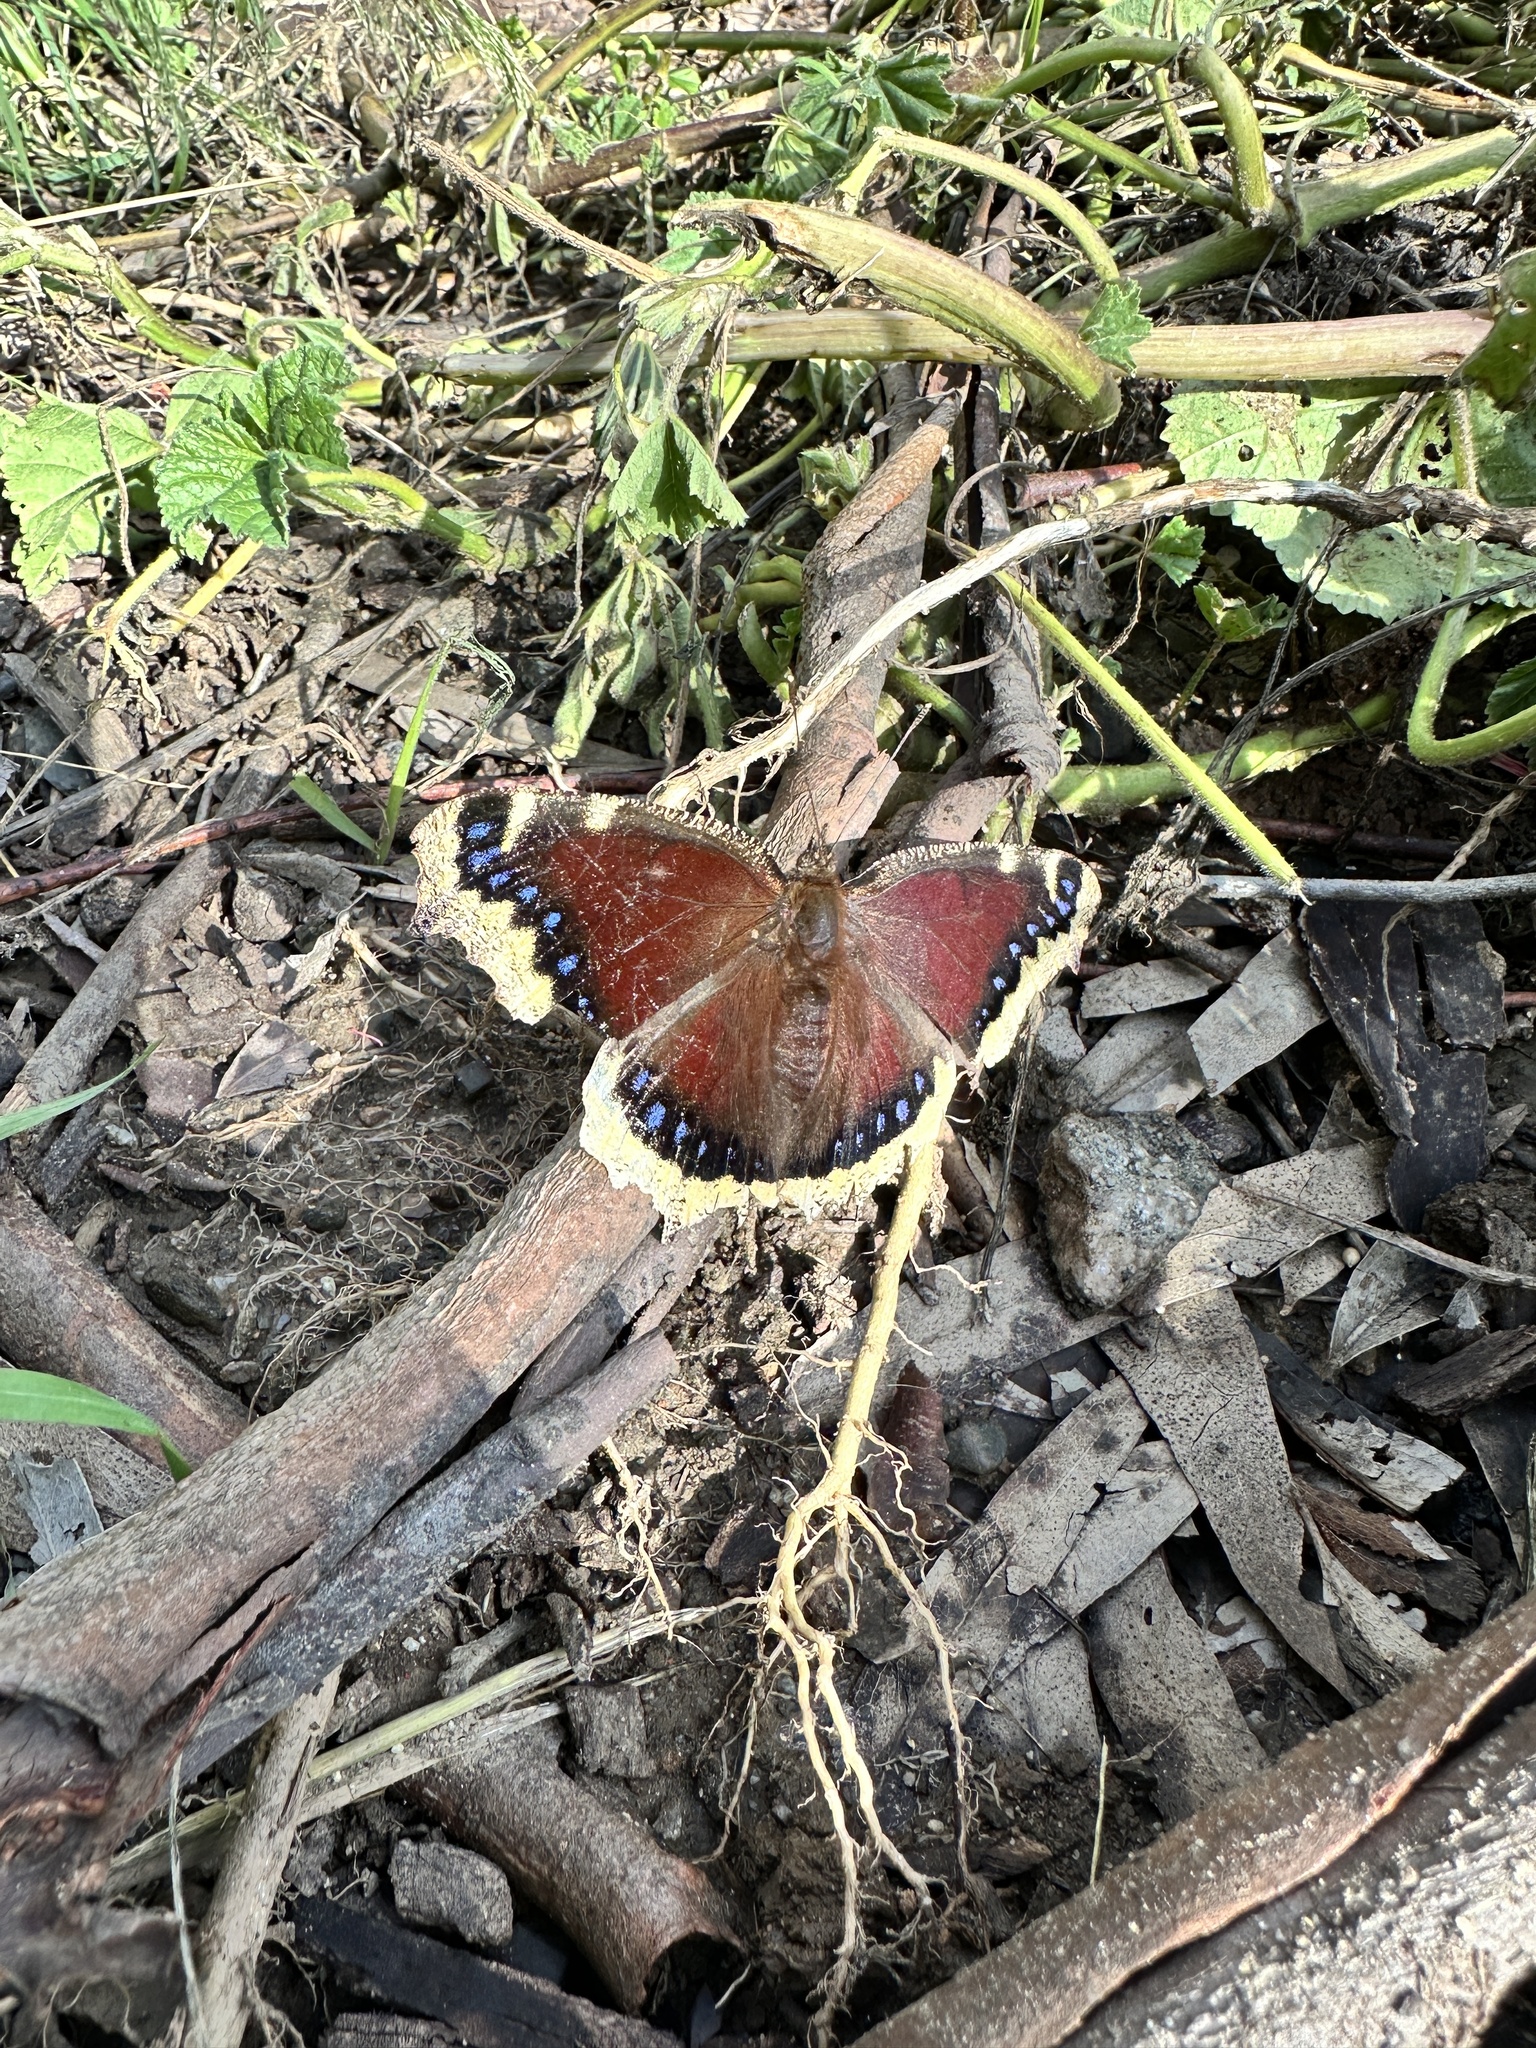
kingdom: Animalia
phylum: Arthropoda
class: Insecta
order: Lepidoptera
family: Nymphalidae
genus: Nymphalis
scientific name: Nymphalis antiopa
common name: Camberwell beauty
